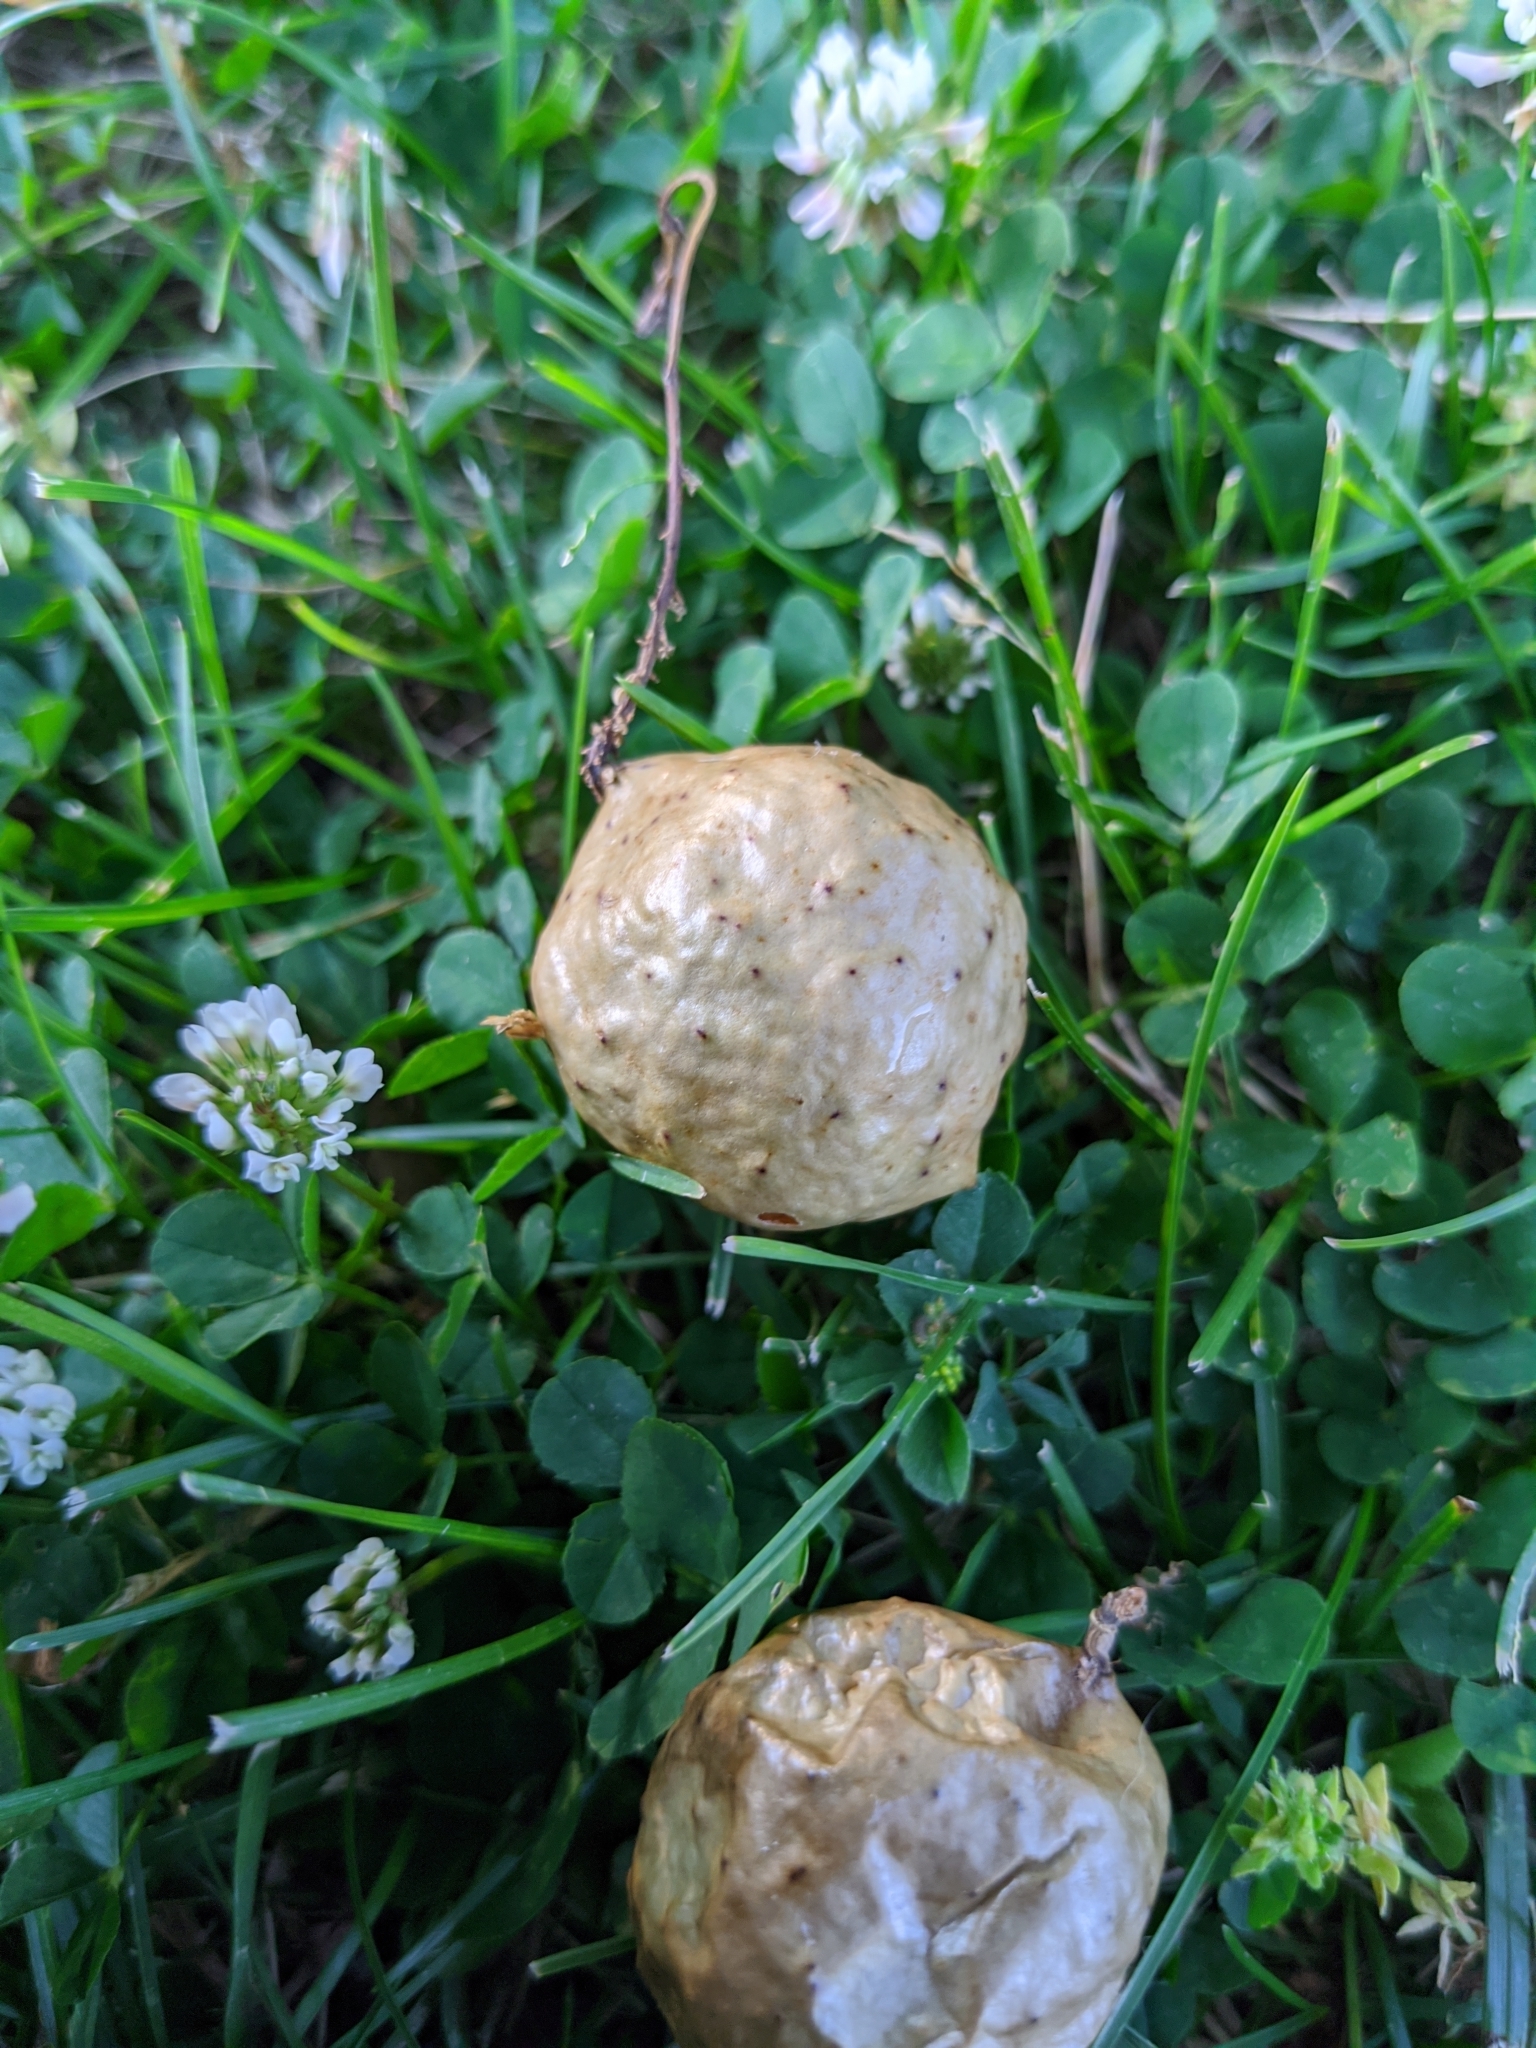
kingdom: Animalia
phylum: Arthropoda
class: Insecta
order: Hymenoptera
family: Cynipidae
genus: Amphibolips
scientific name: Amphibolips
